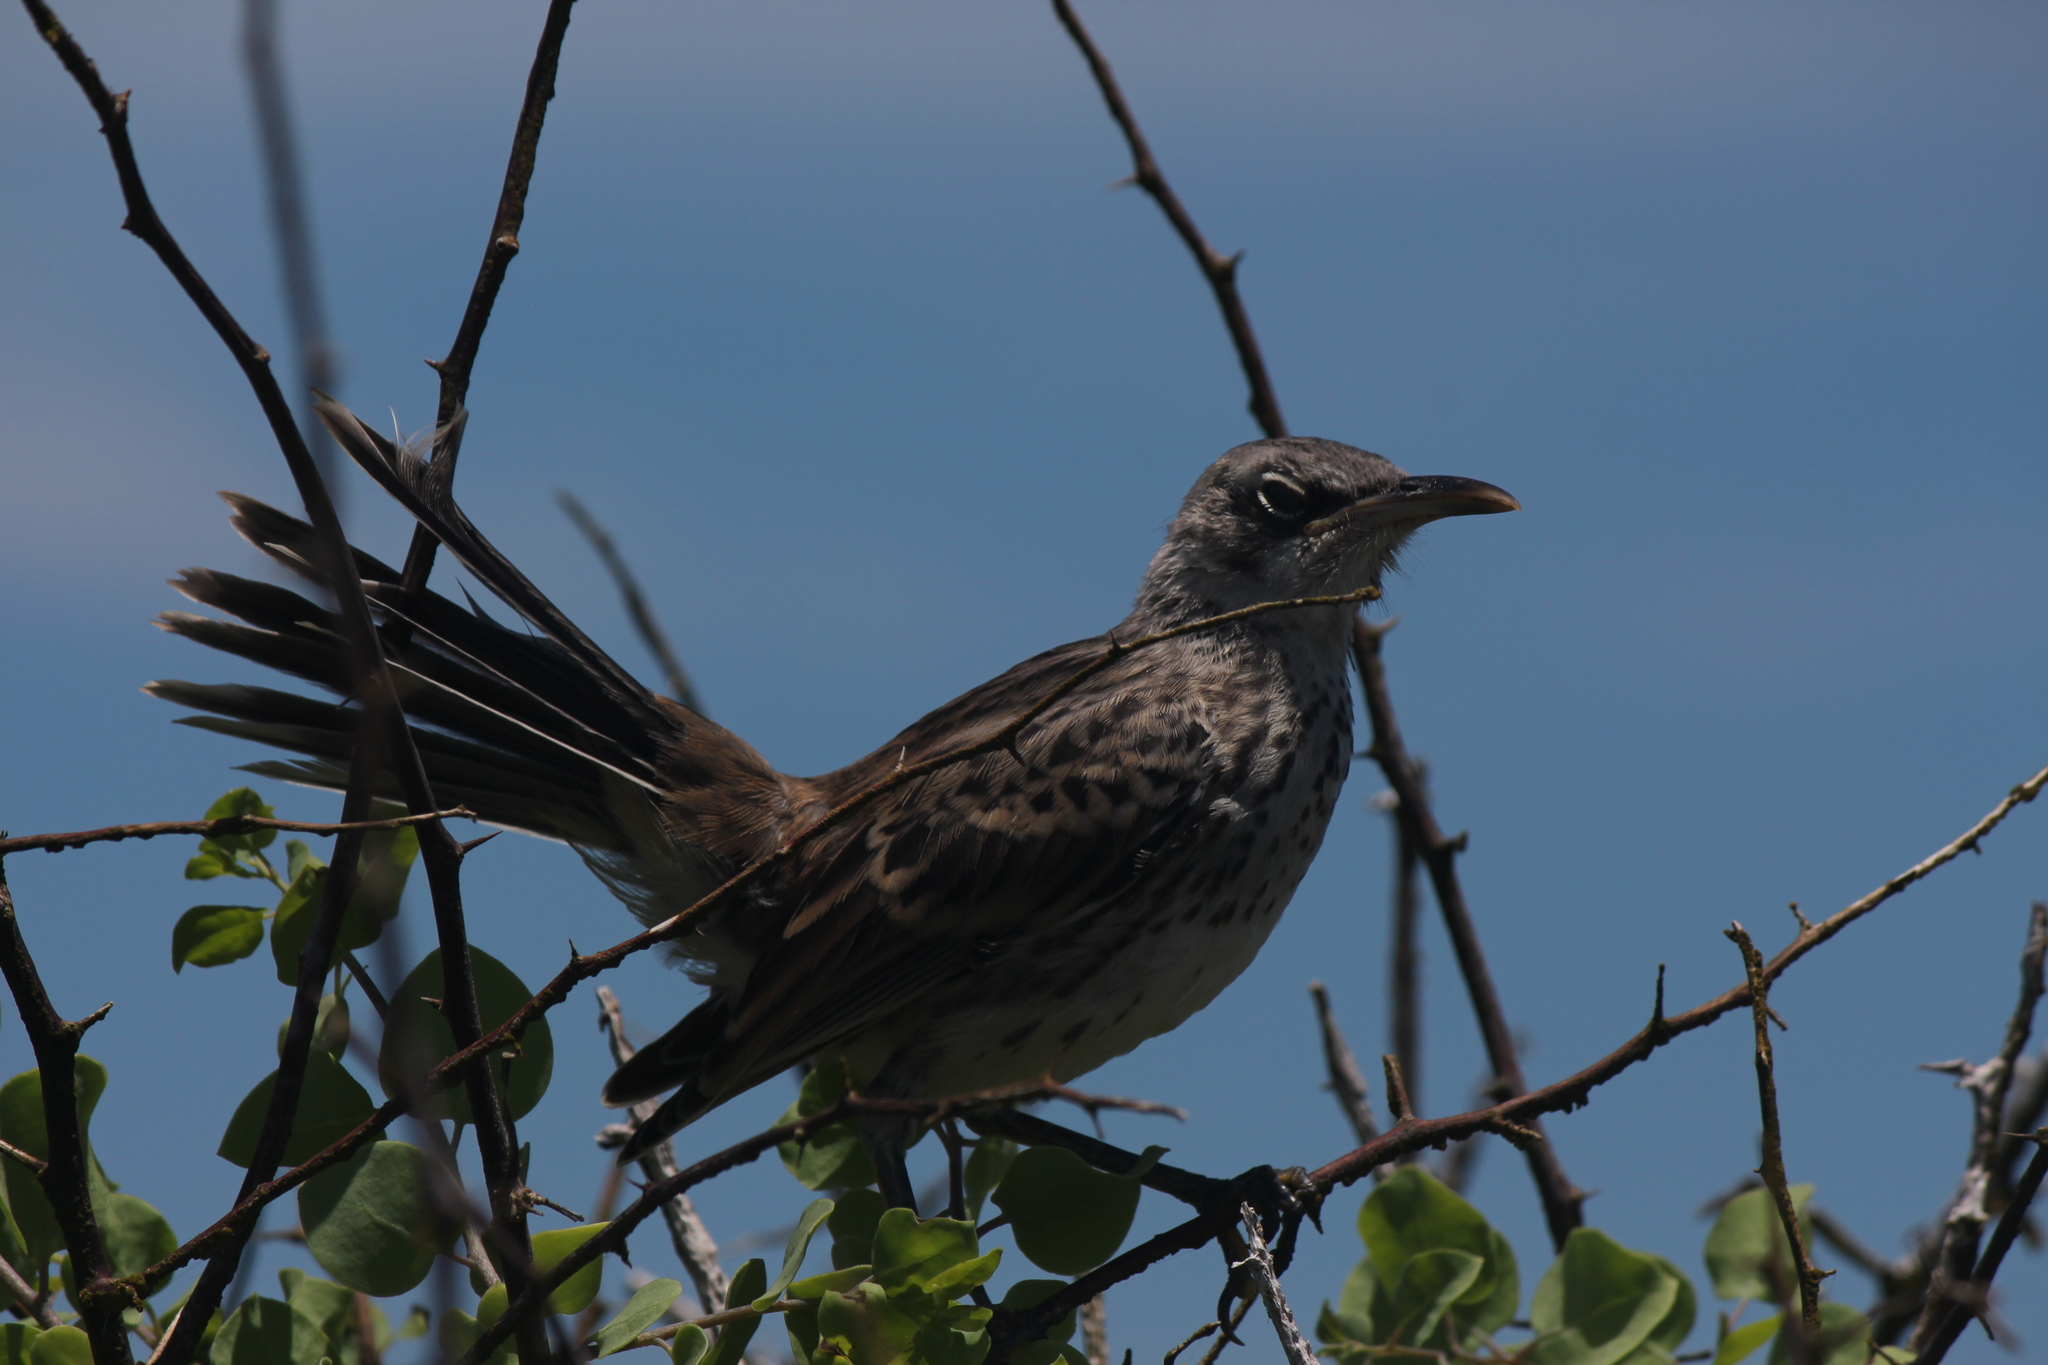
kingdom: Animalia
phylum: Chordata
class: Aves
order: Passeriformes
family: Mimidae
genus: Mimus
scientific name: Mimus macdonaldi
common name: Espanola mockingbird
